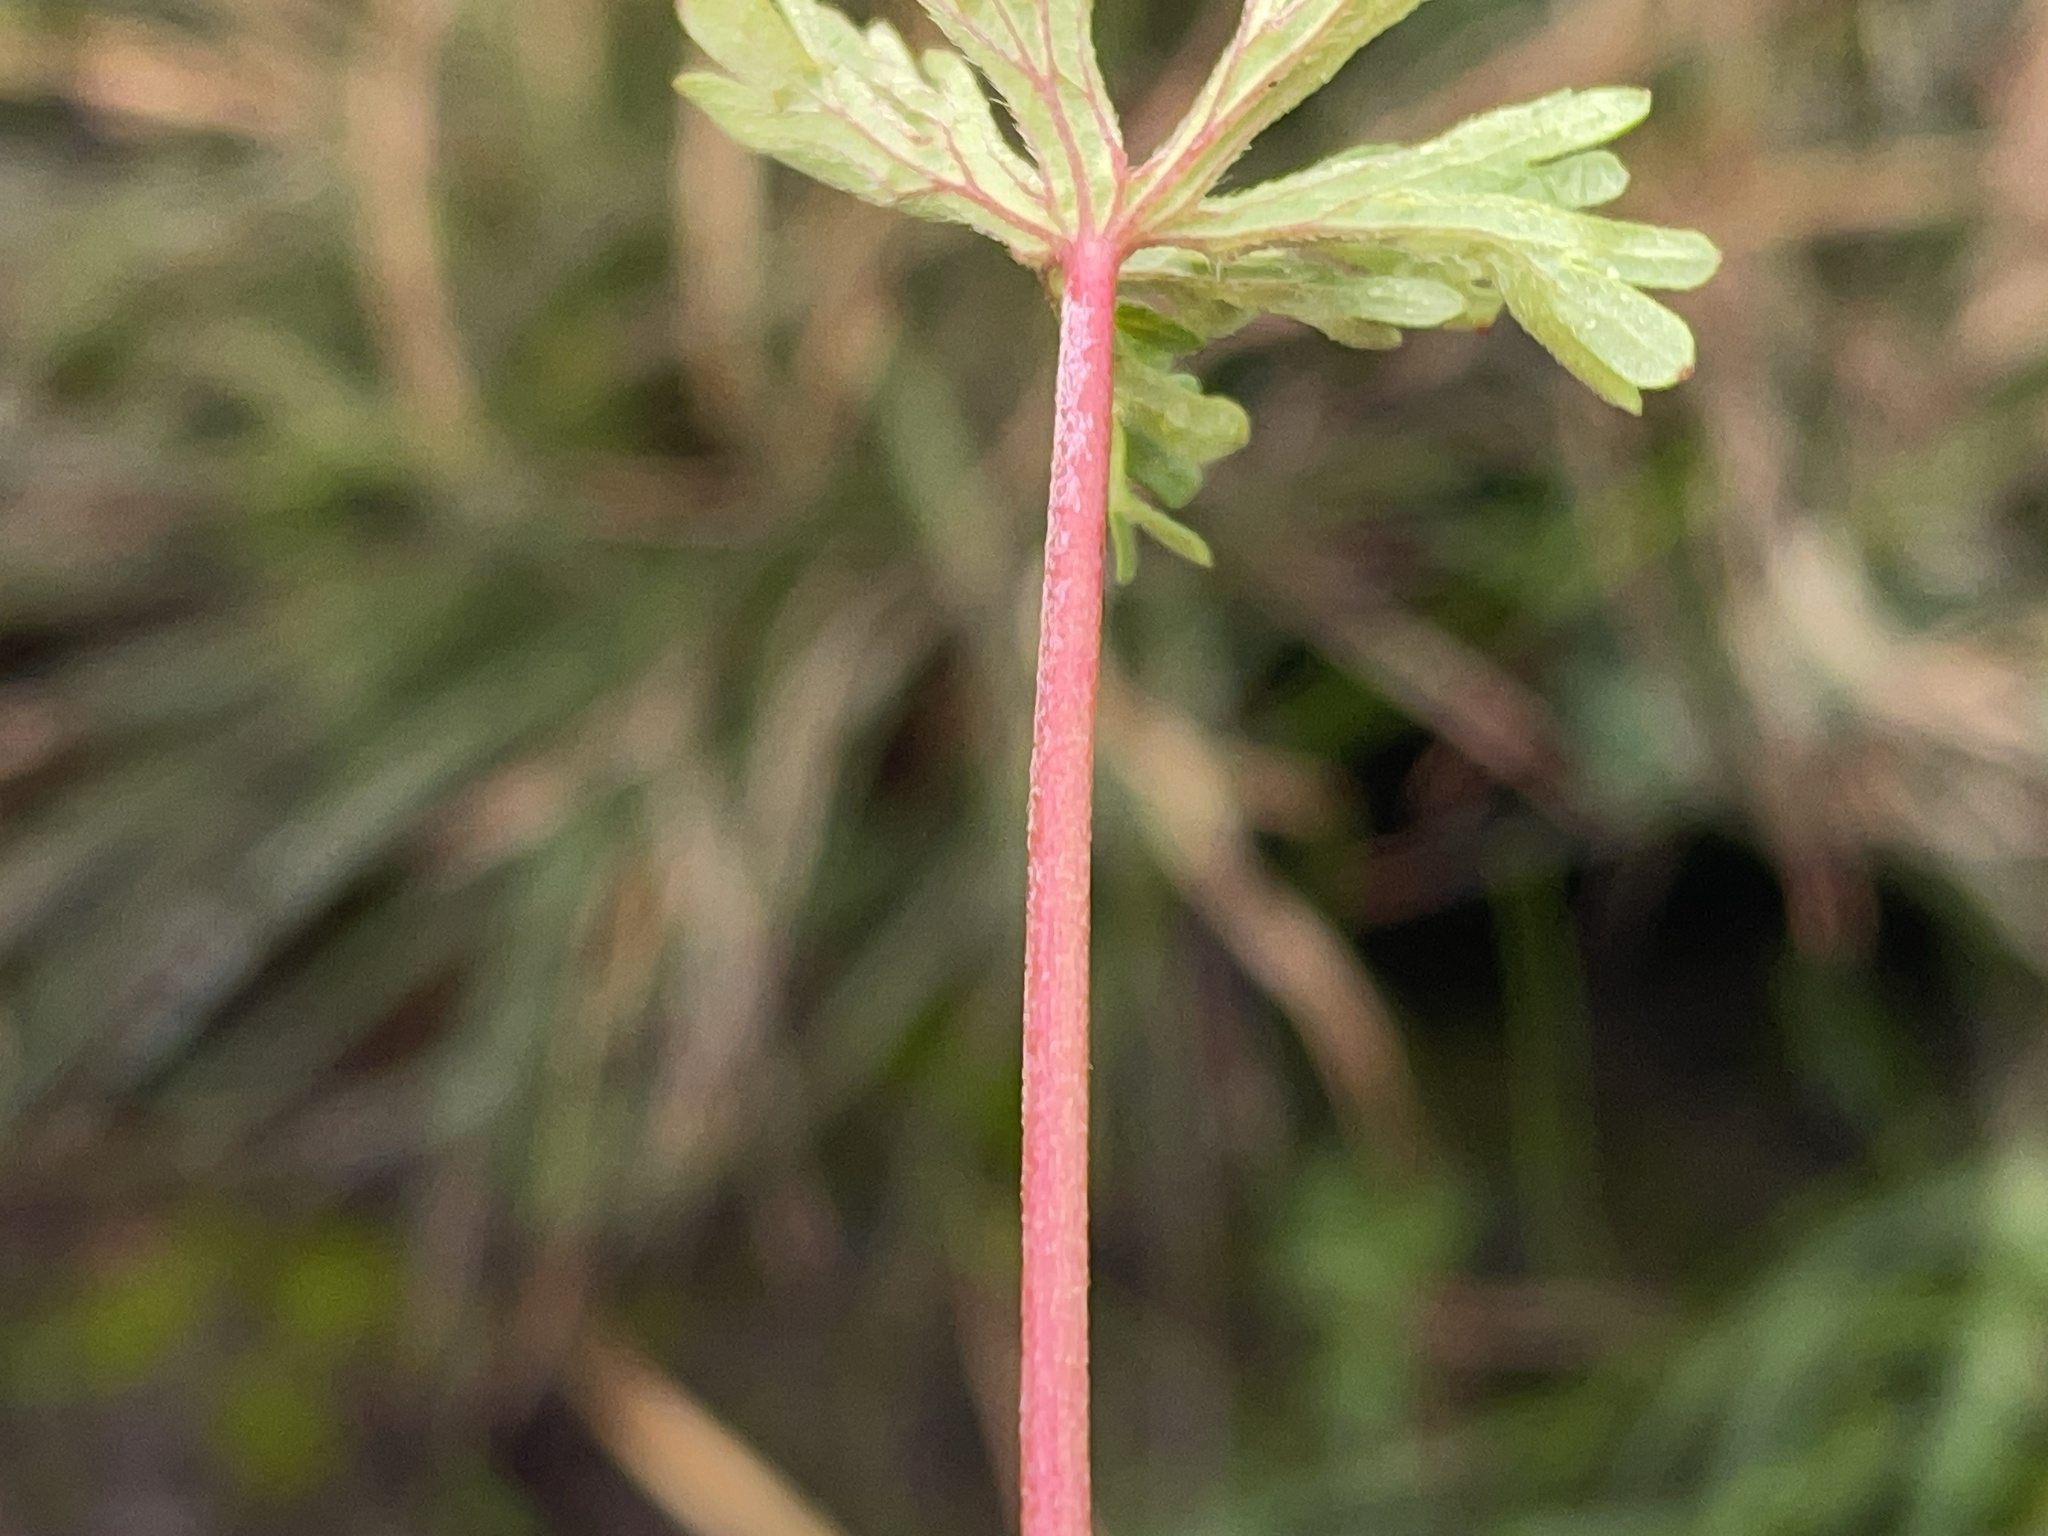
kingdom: Plantae
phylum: Tracheophyta
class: Magnoliopsida
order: Geraniales
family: Geraniaceae
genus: Geranium
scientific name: Geranium retrorsum
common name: New zealand geranium
